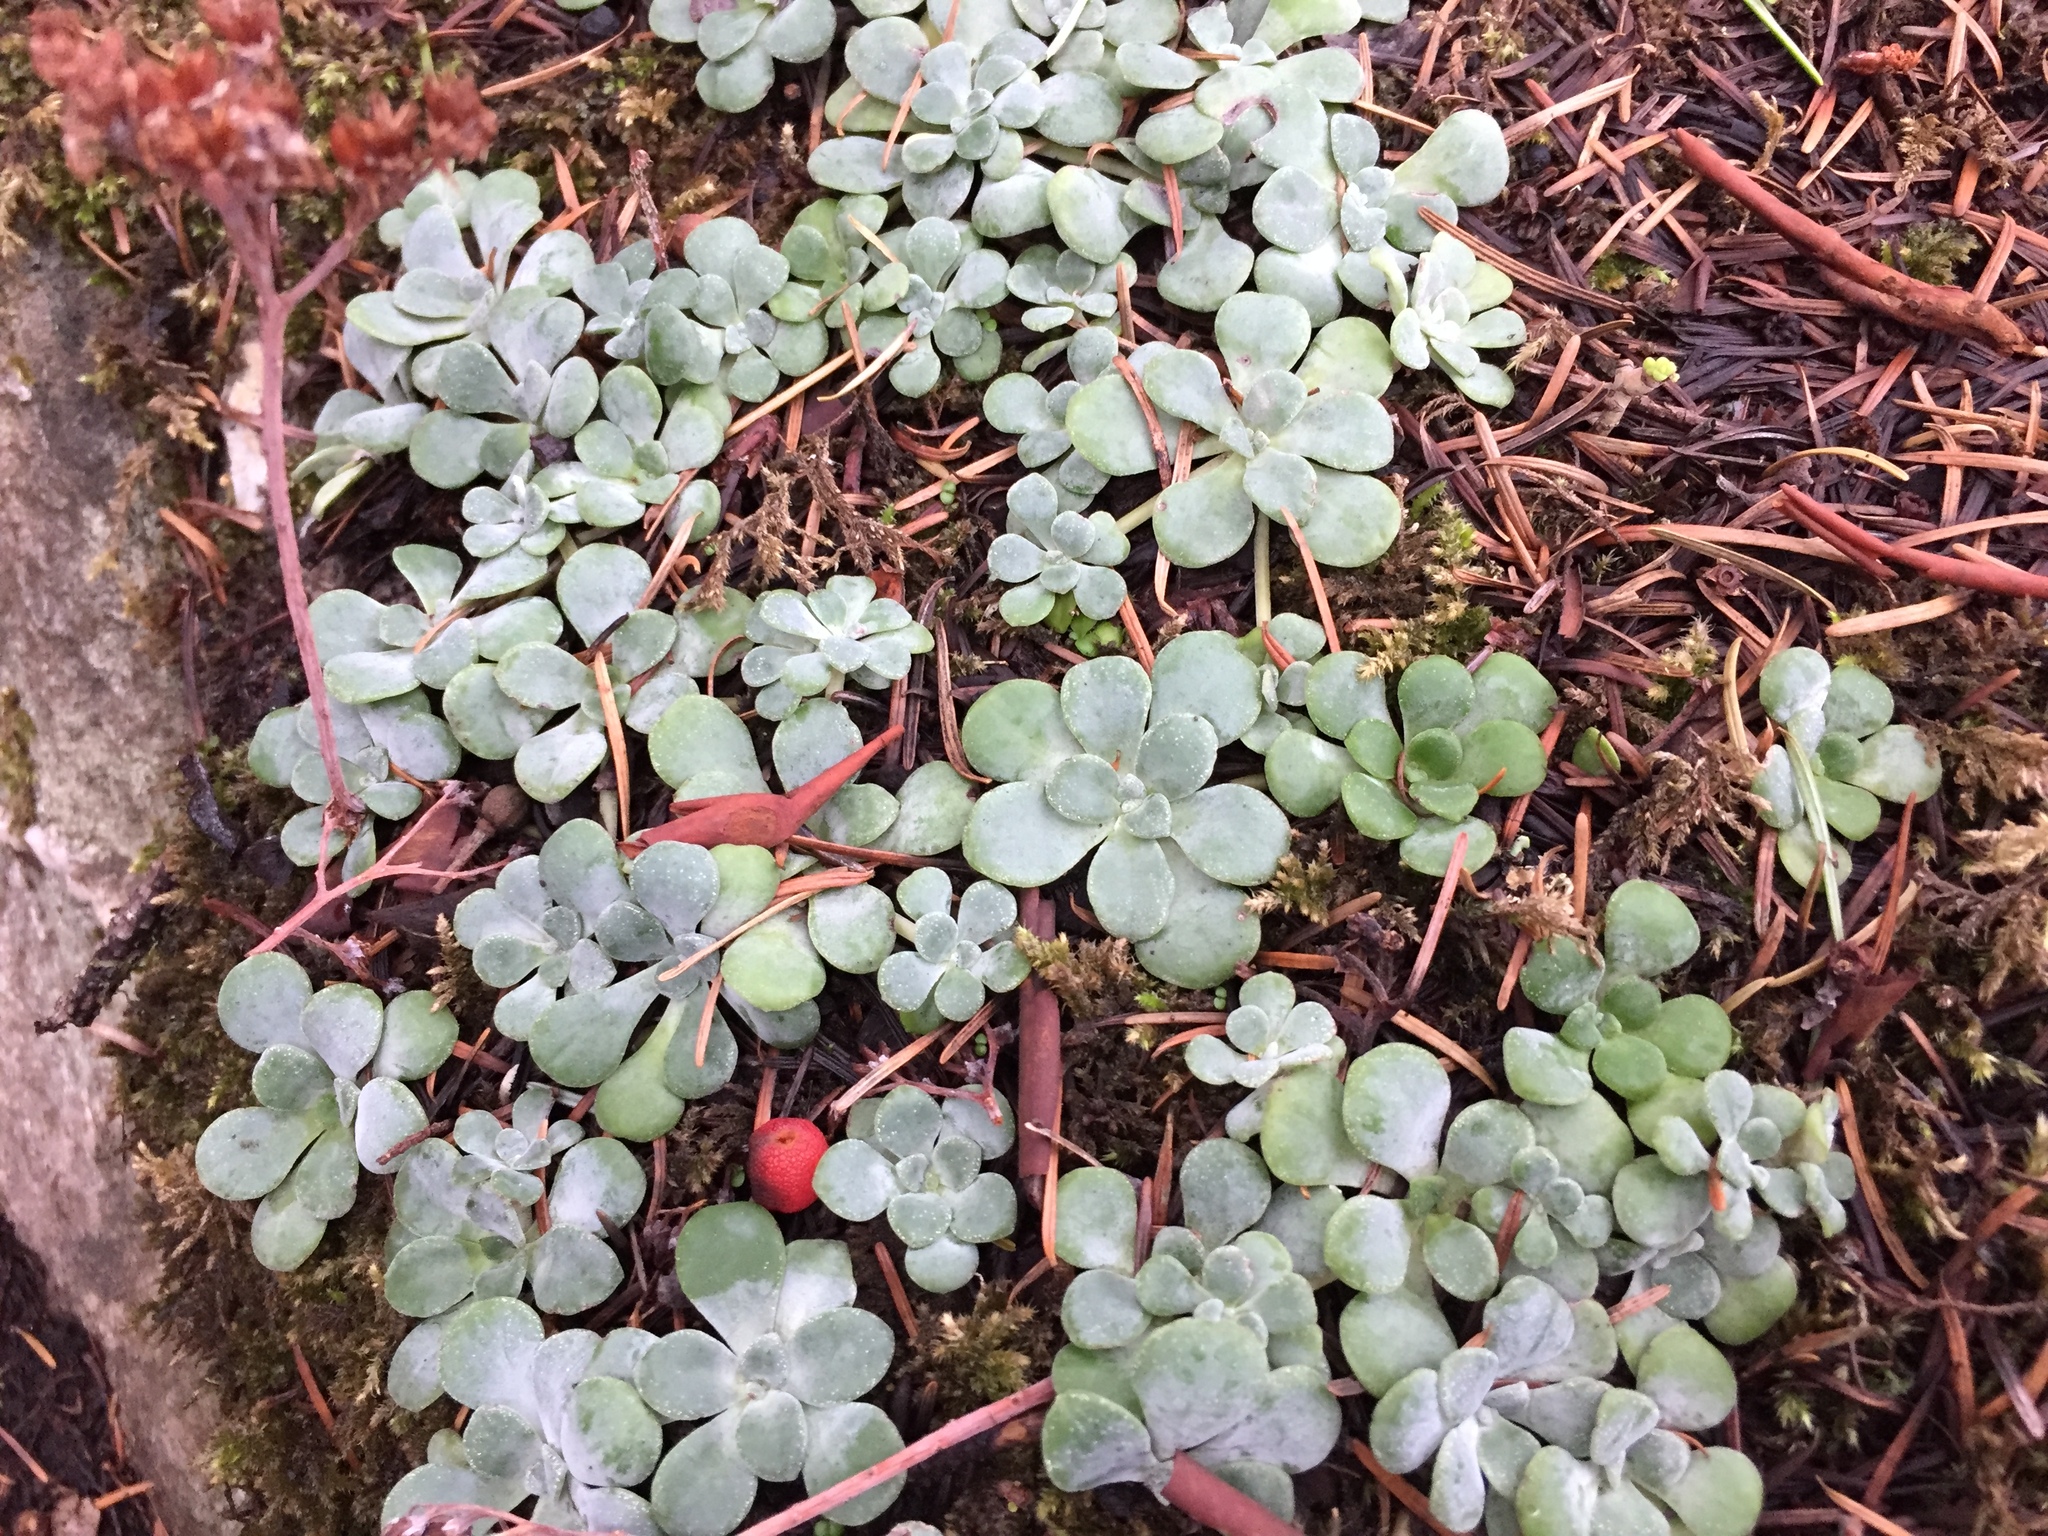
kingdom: Plantae
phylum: Tracheophyta
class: Magnoliopsida
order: Saxifragales
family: Crassulaceae
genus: Sedum
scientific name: Sedum spathulifolium
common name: Colorado stonecrop
